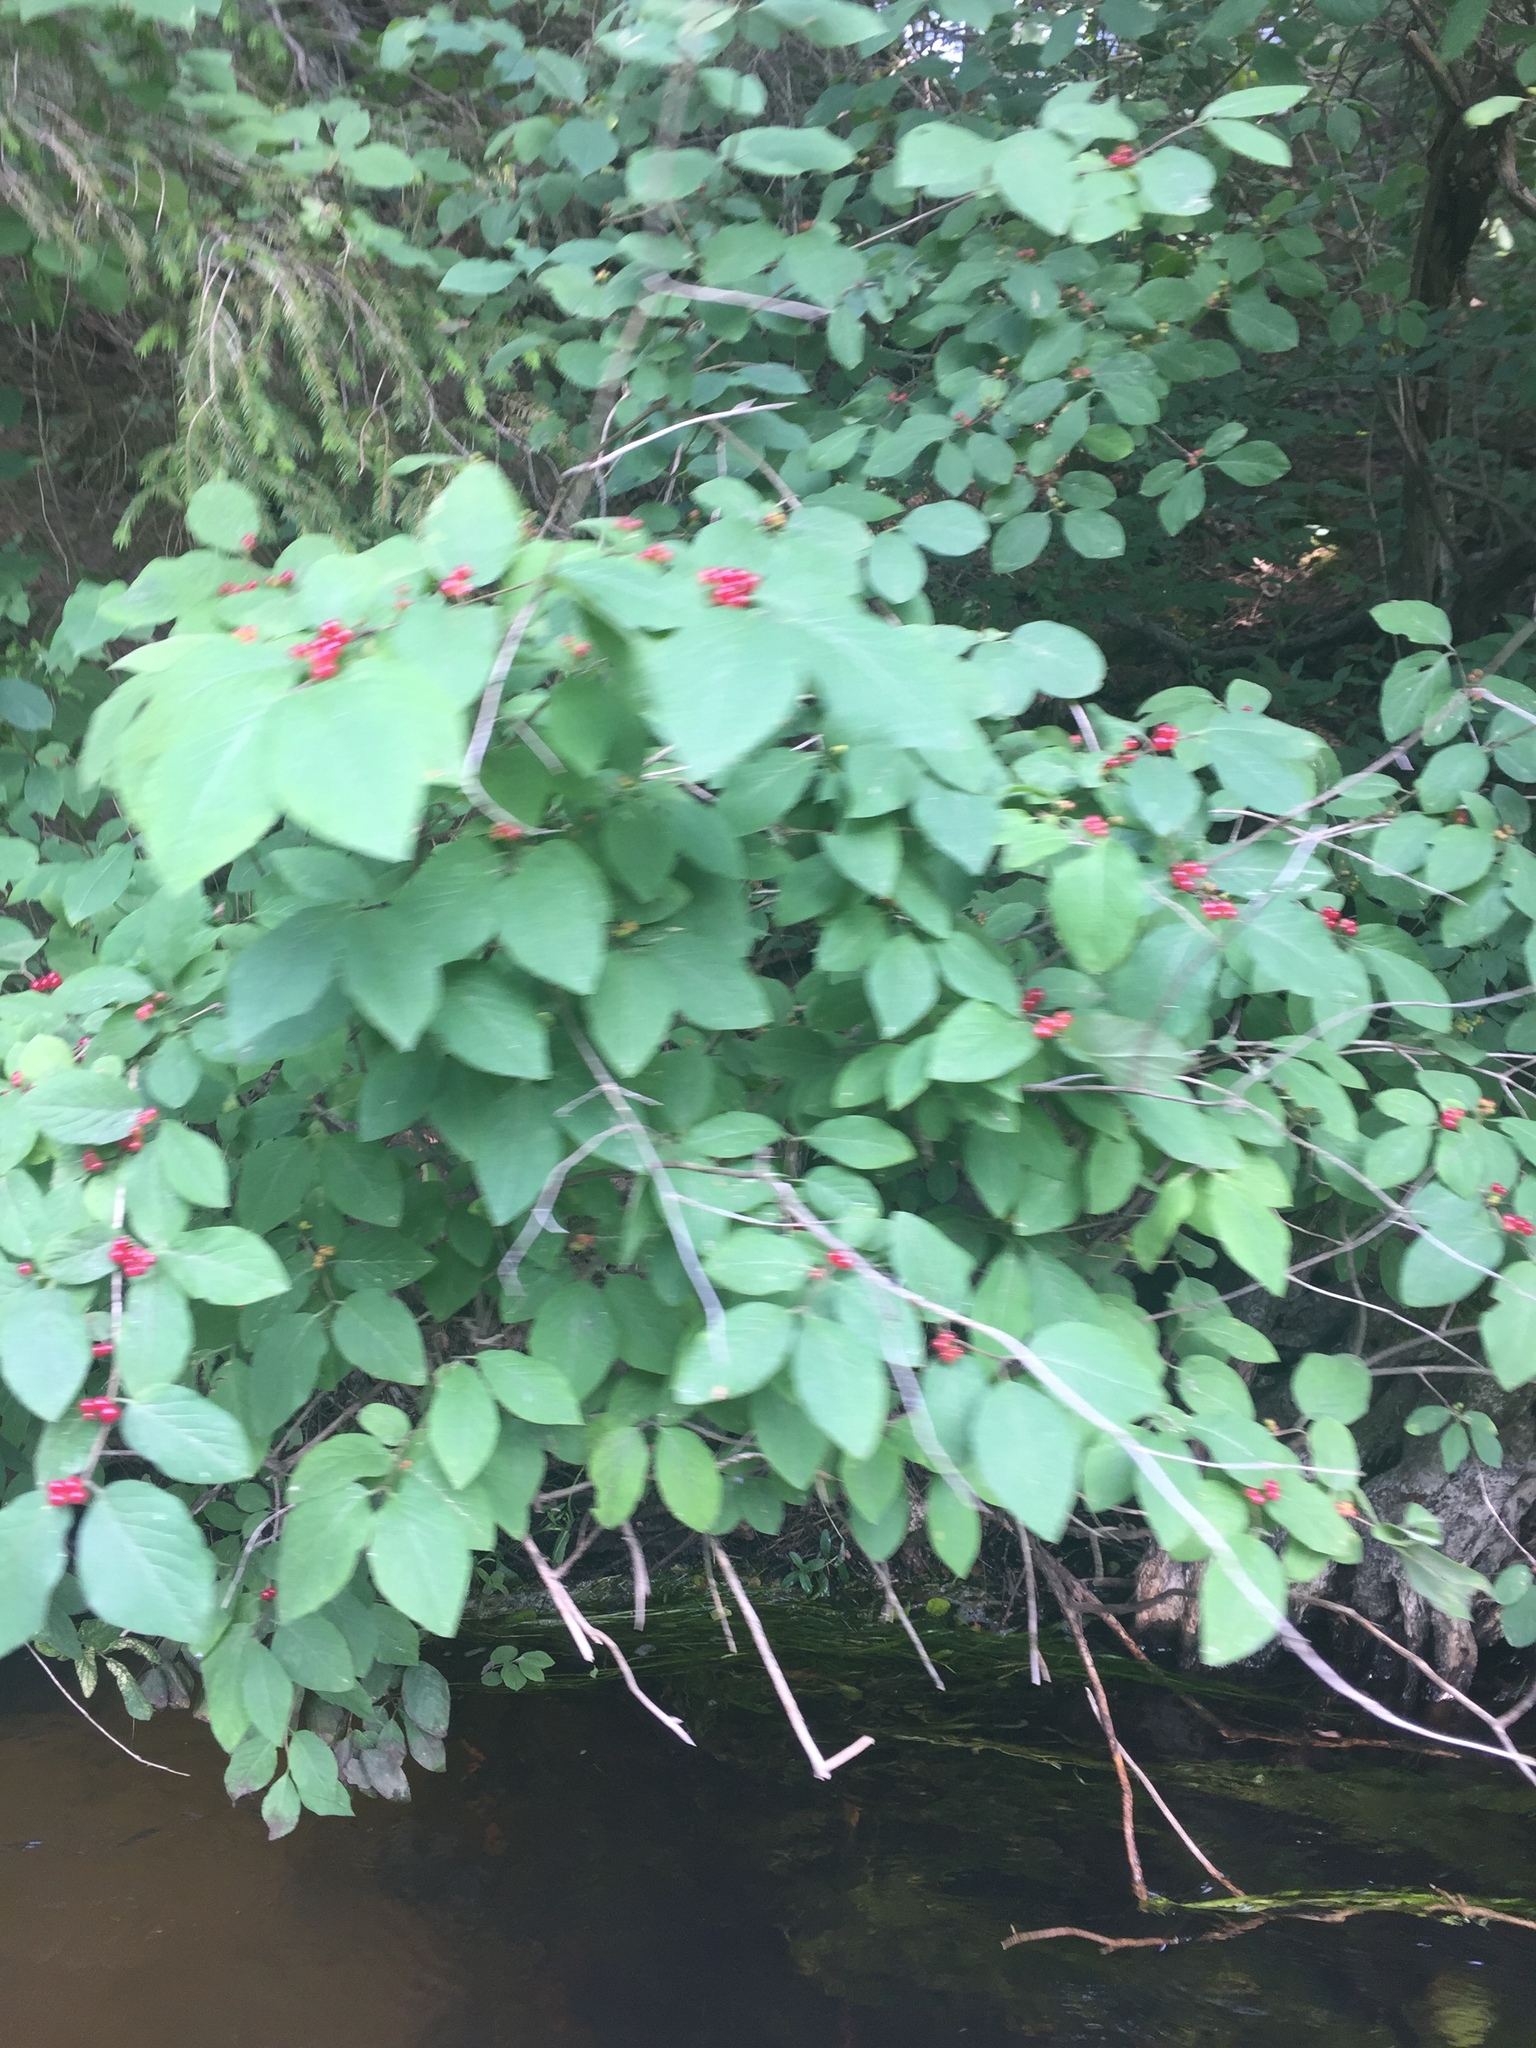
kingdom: Plantae
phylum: Tracheophyta
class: Magnoliopsida
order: Dipsacales
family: Caprifoliaceae
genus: Lonicera
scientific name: Lonicera xylosteum
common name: Fly honeysuckle
